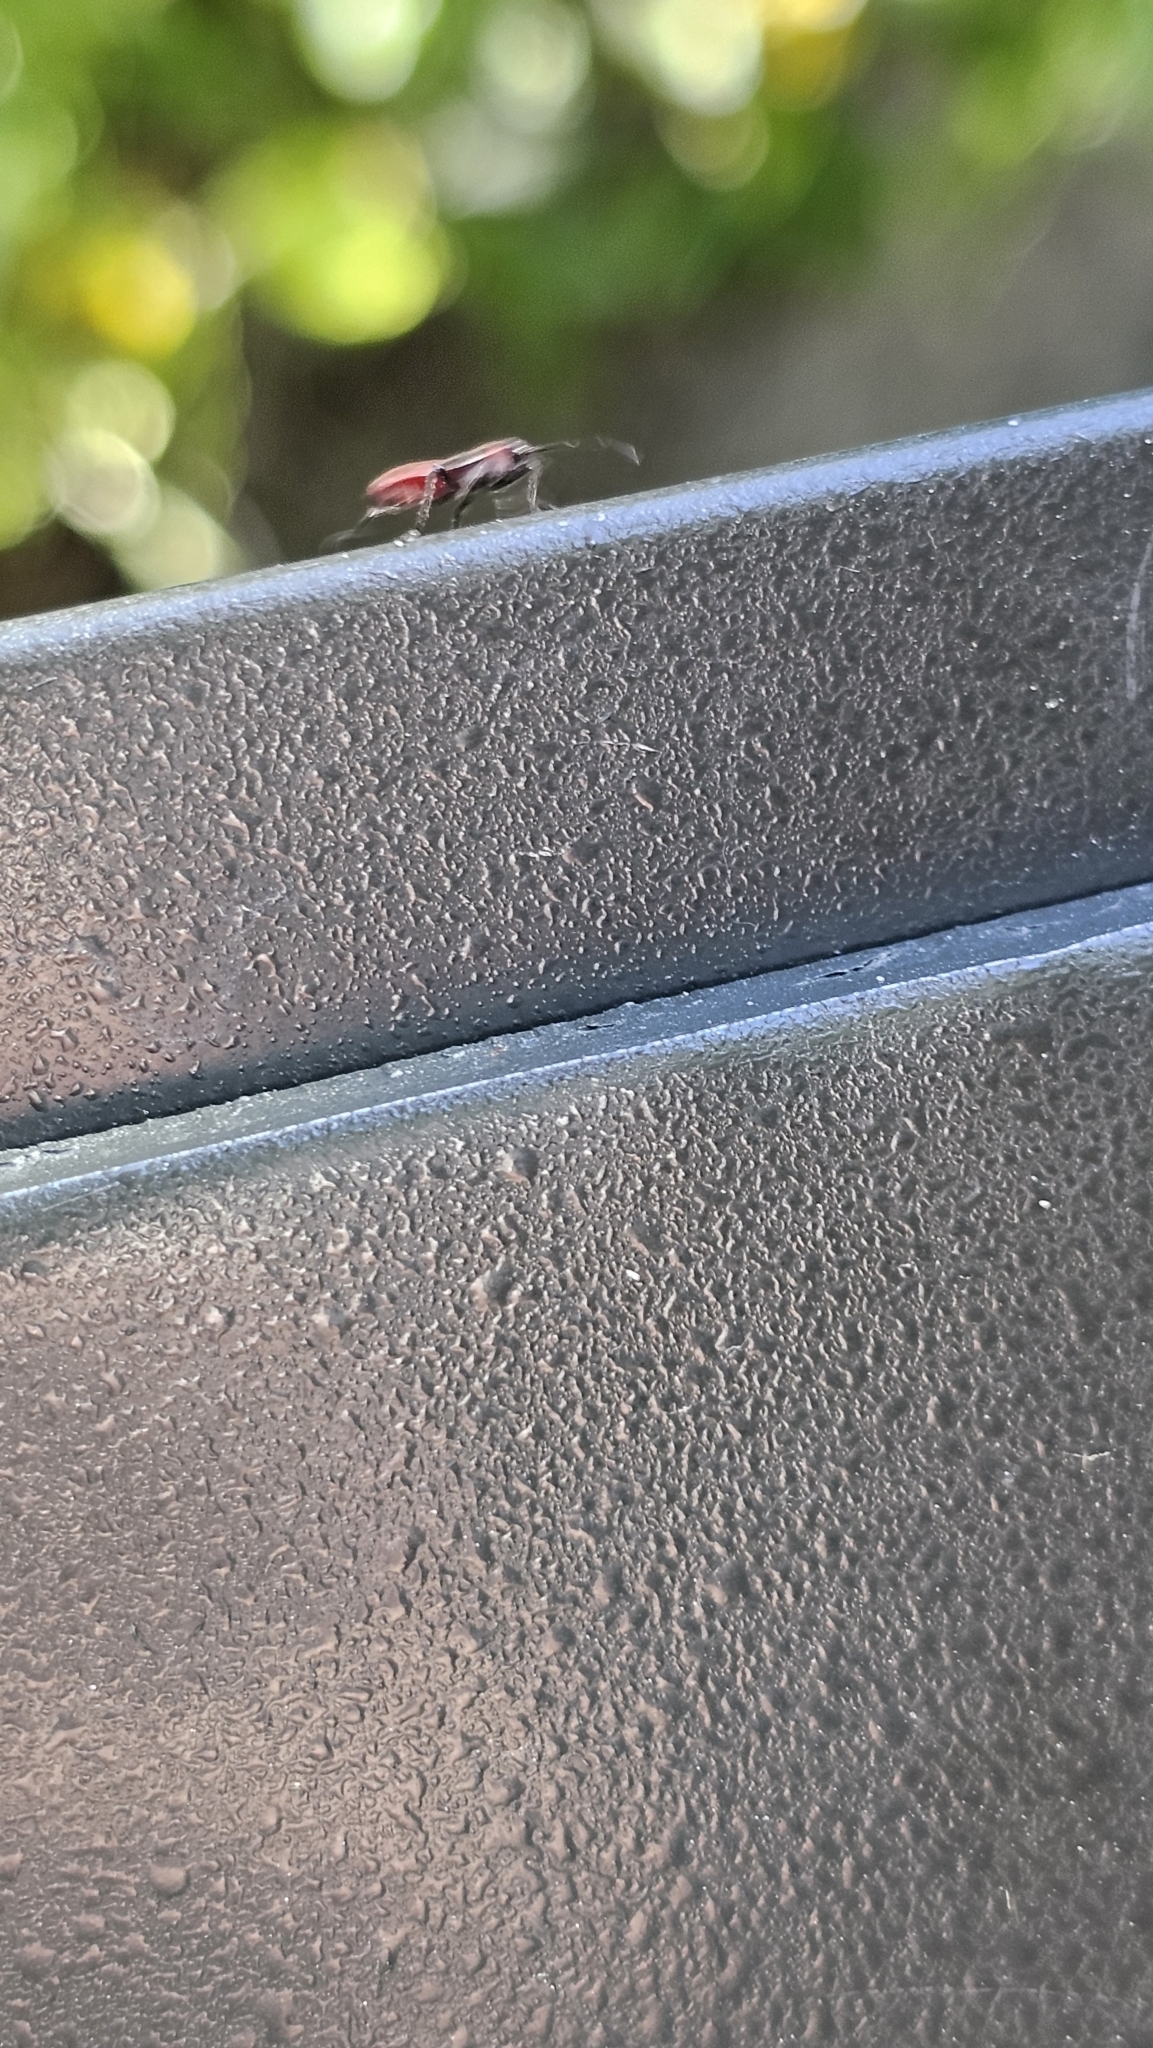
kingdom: Animalia
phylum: Arthropoda
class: Insecta
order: Hemiptera
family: Lygaeidae
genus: Arocatus
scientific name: Arocatus rusticus
